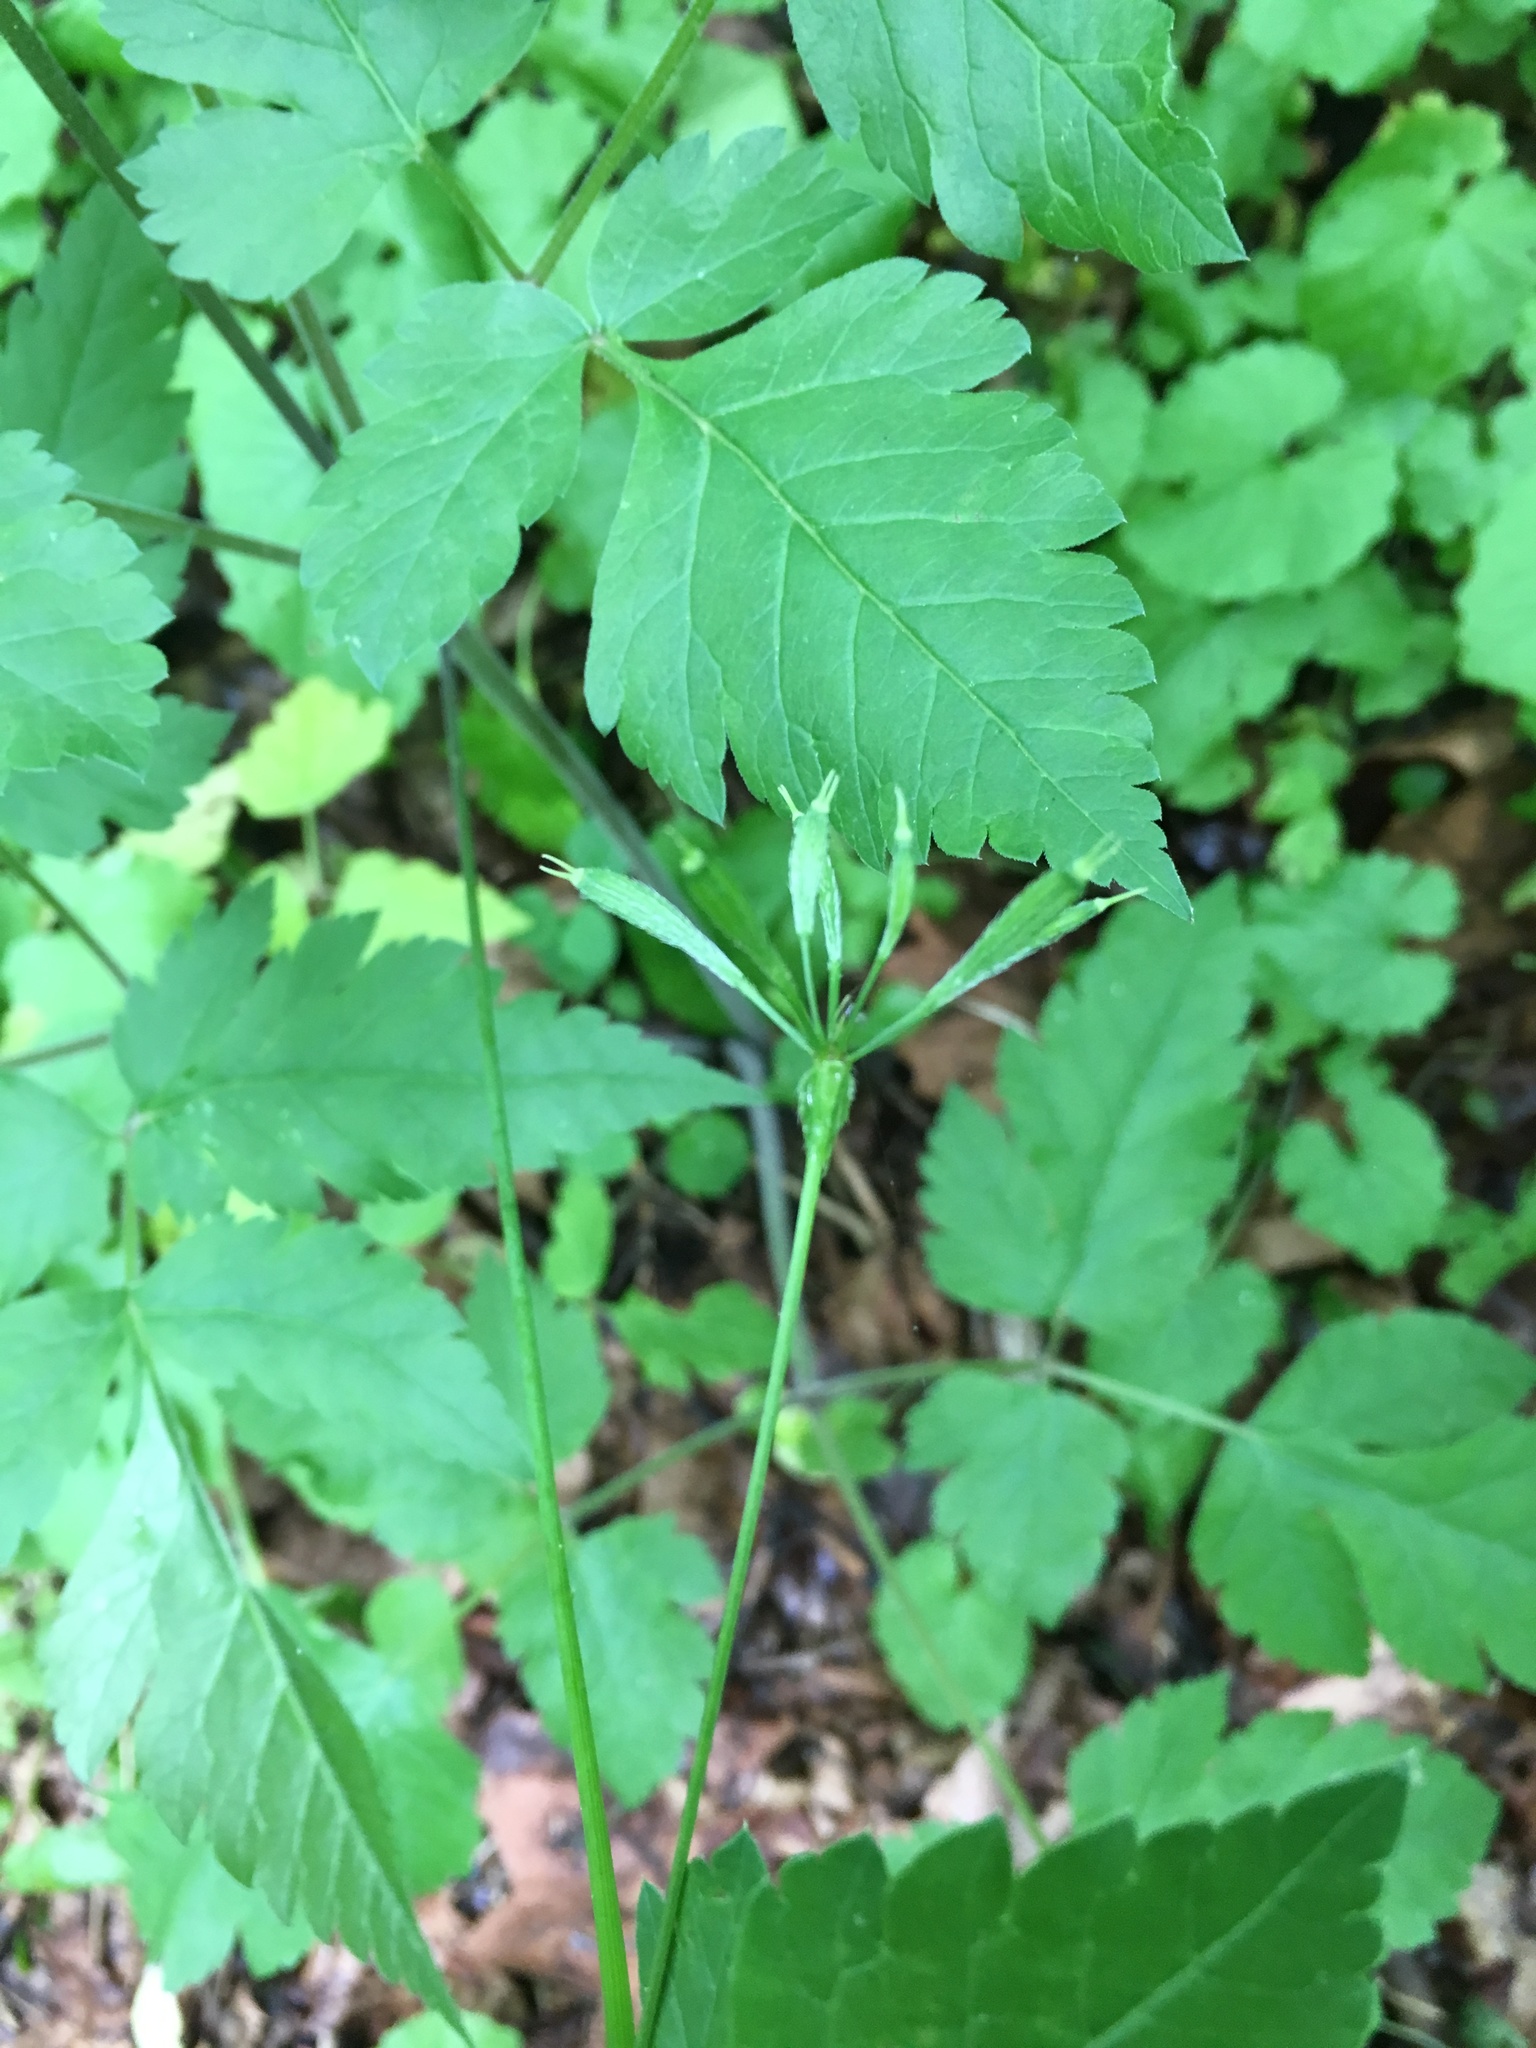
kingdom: Plantae
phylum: Tracheophyta
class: Magnoliopsida
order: Apiales
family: Apiaceae
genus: Osmorhiza
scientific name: Osmorhiza longistylis
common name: Smooth sweet cicely
